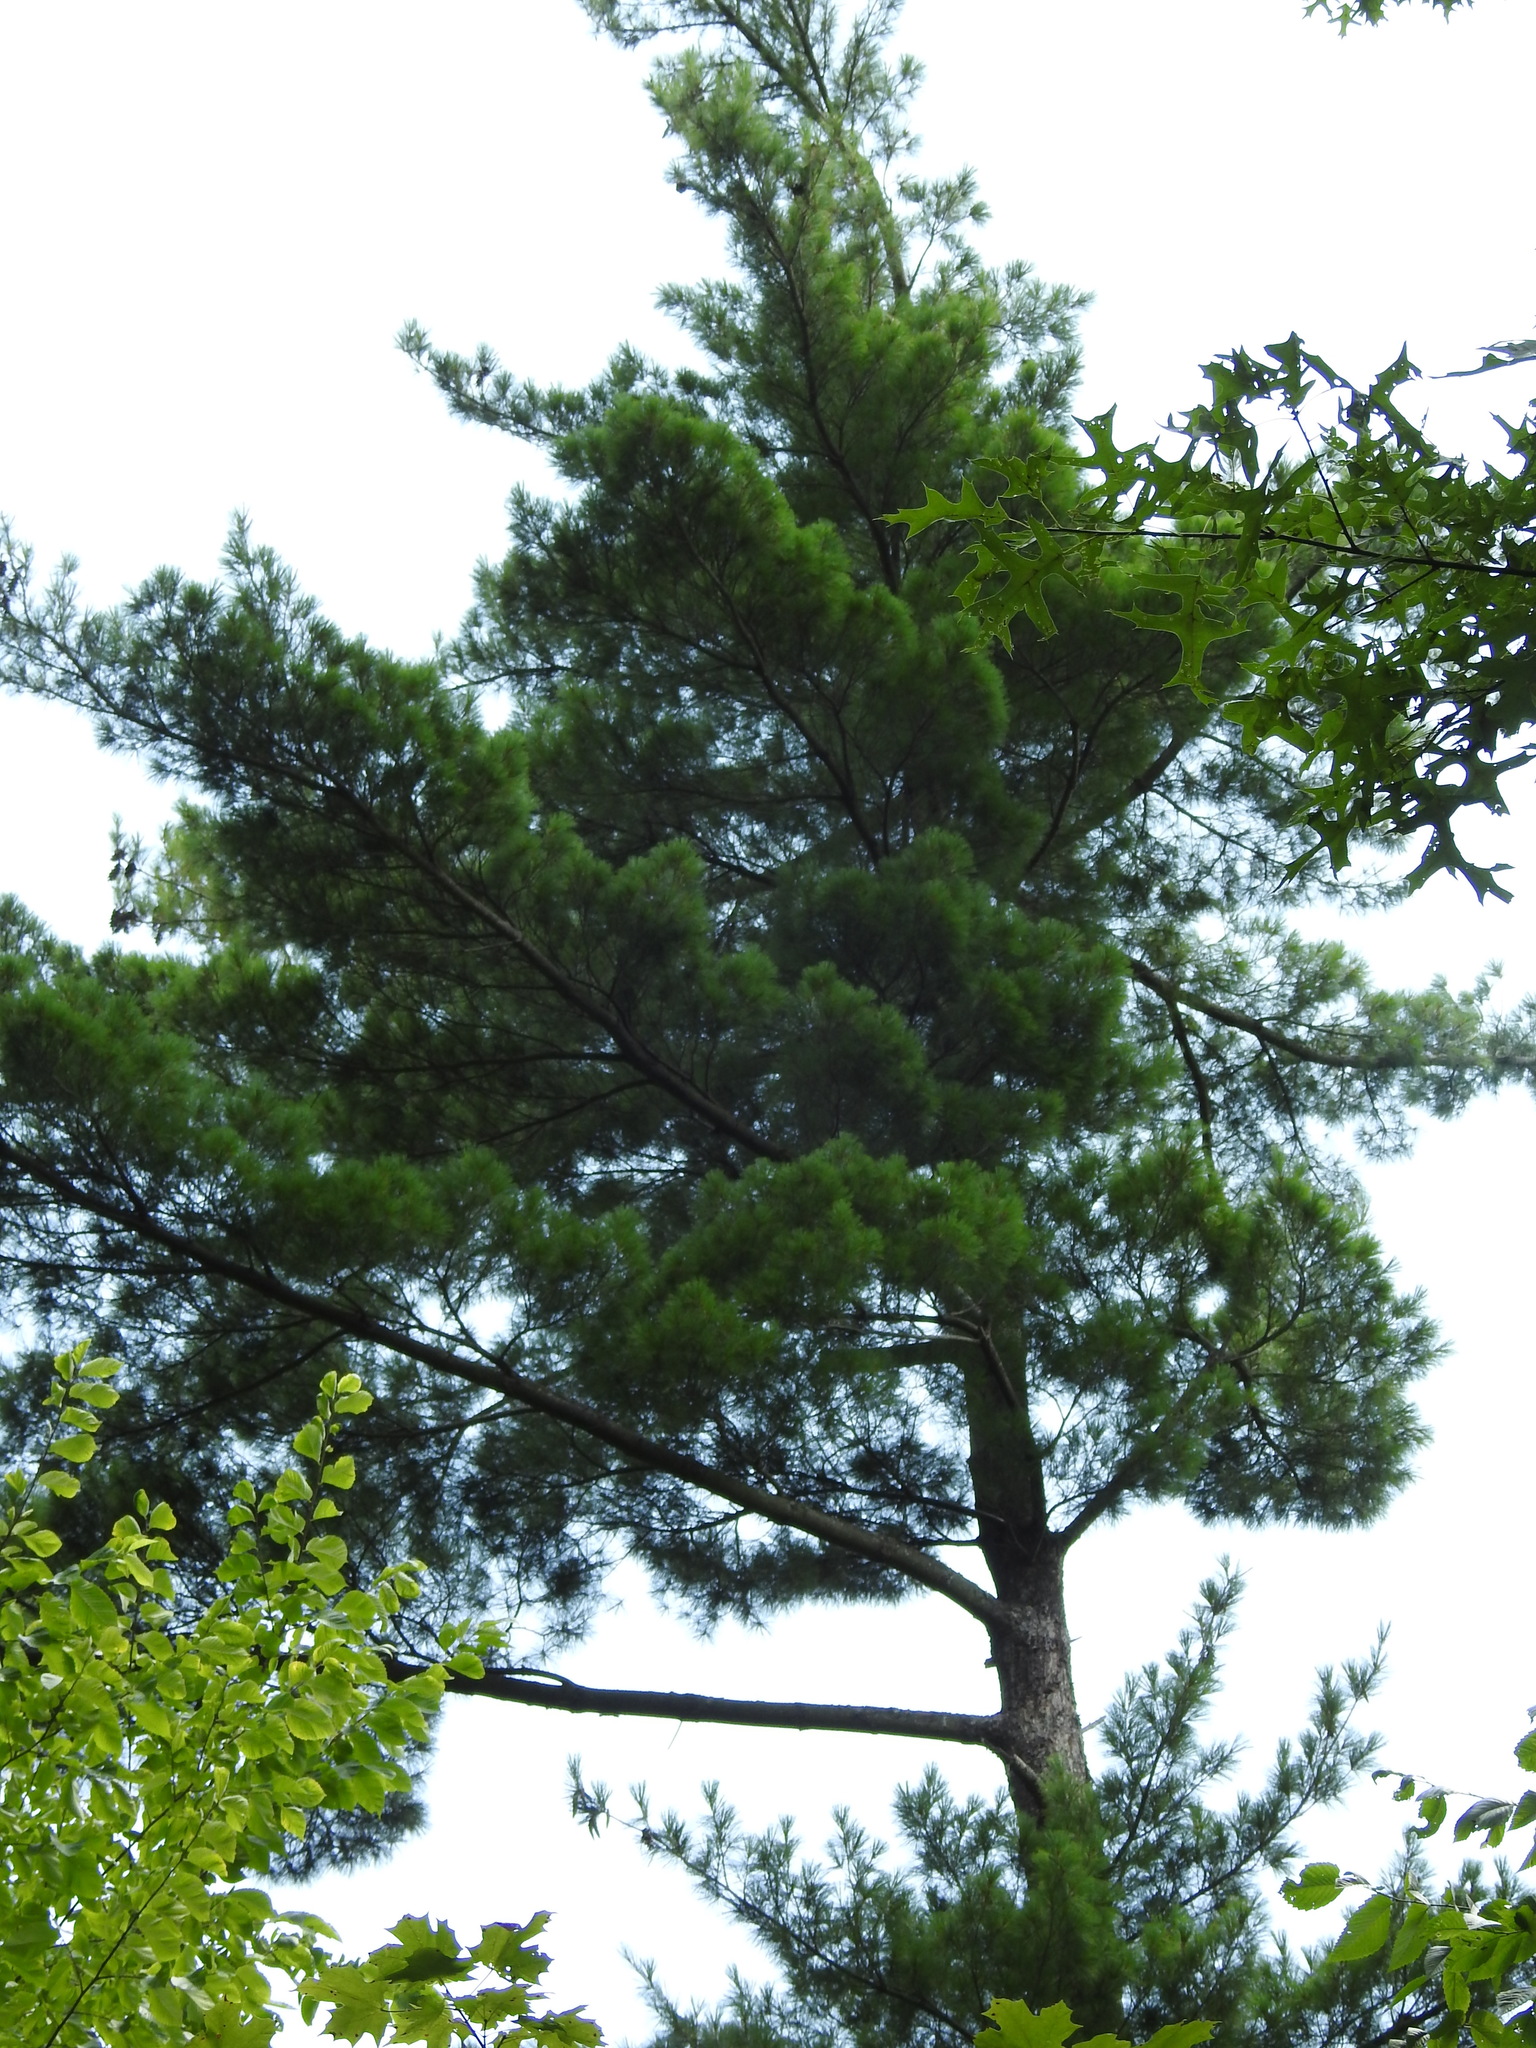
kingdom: Plantae
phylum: Tracheophyta
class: Pinopsida
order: Pinales
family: Pinaceae
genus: Pinus
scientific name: Pinus strobus
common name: Weymouth pine
